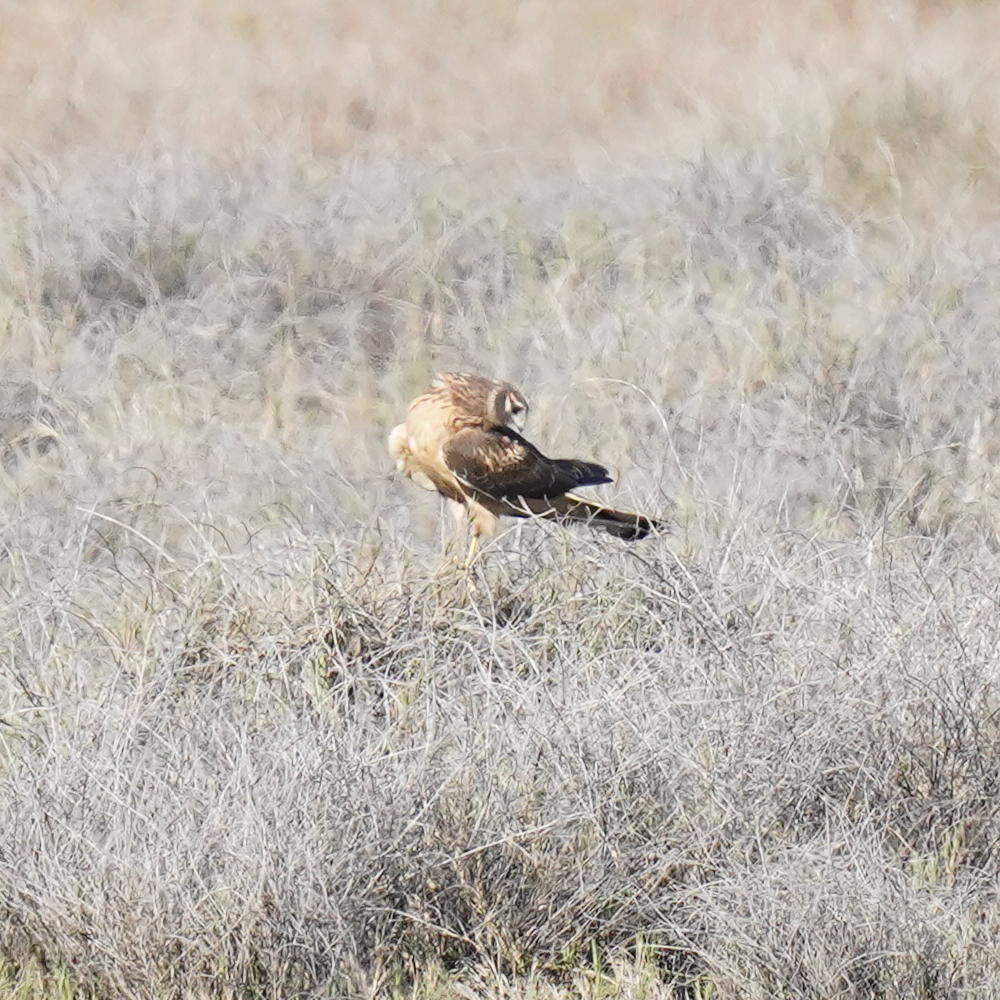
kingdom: Animalia
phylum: Chordata
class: Aves
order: Accipitriformes
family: Accipitridae
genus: Circus
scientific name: Circus cyaneus
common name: Hen harrier
